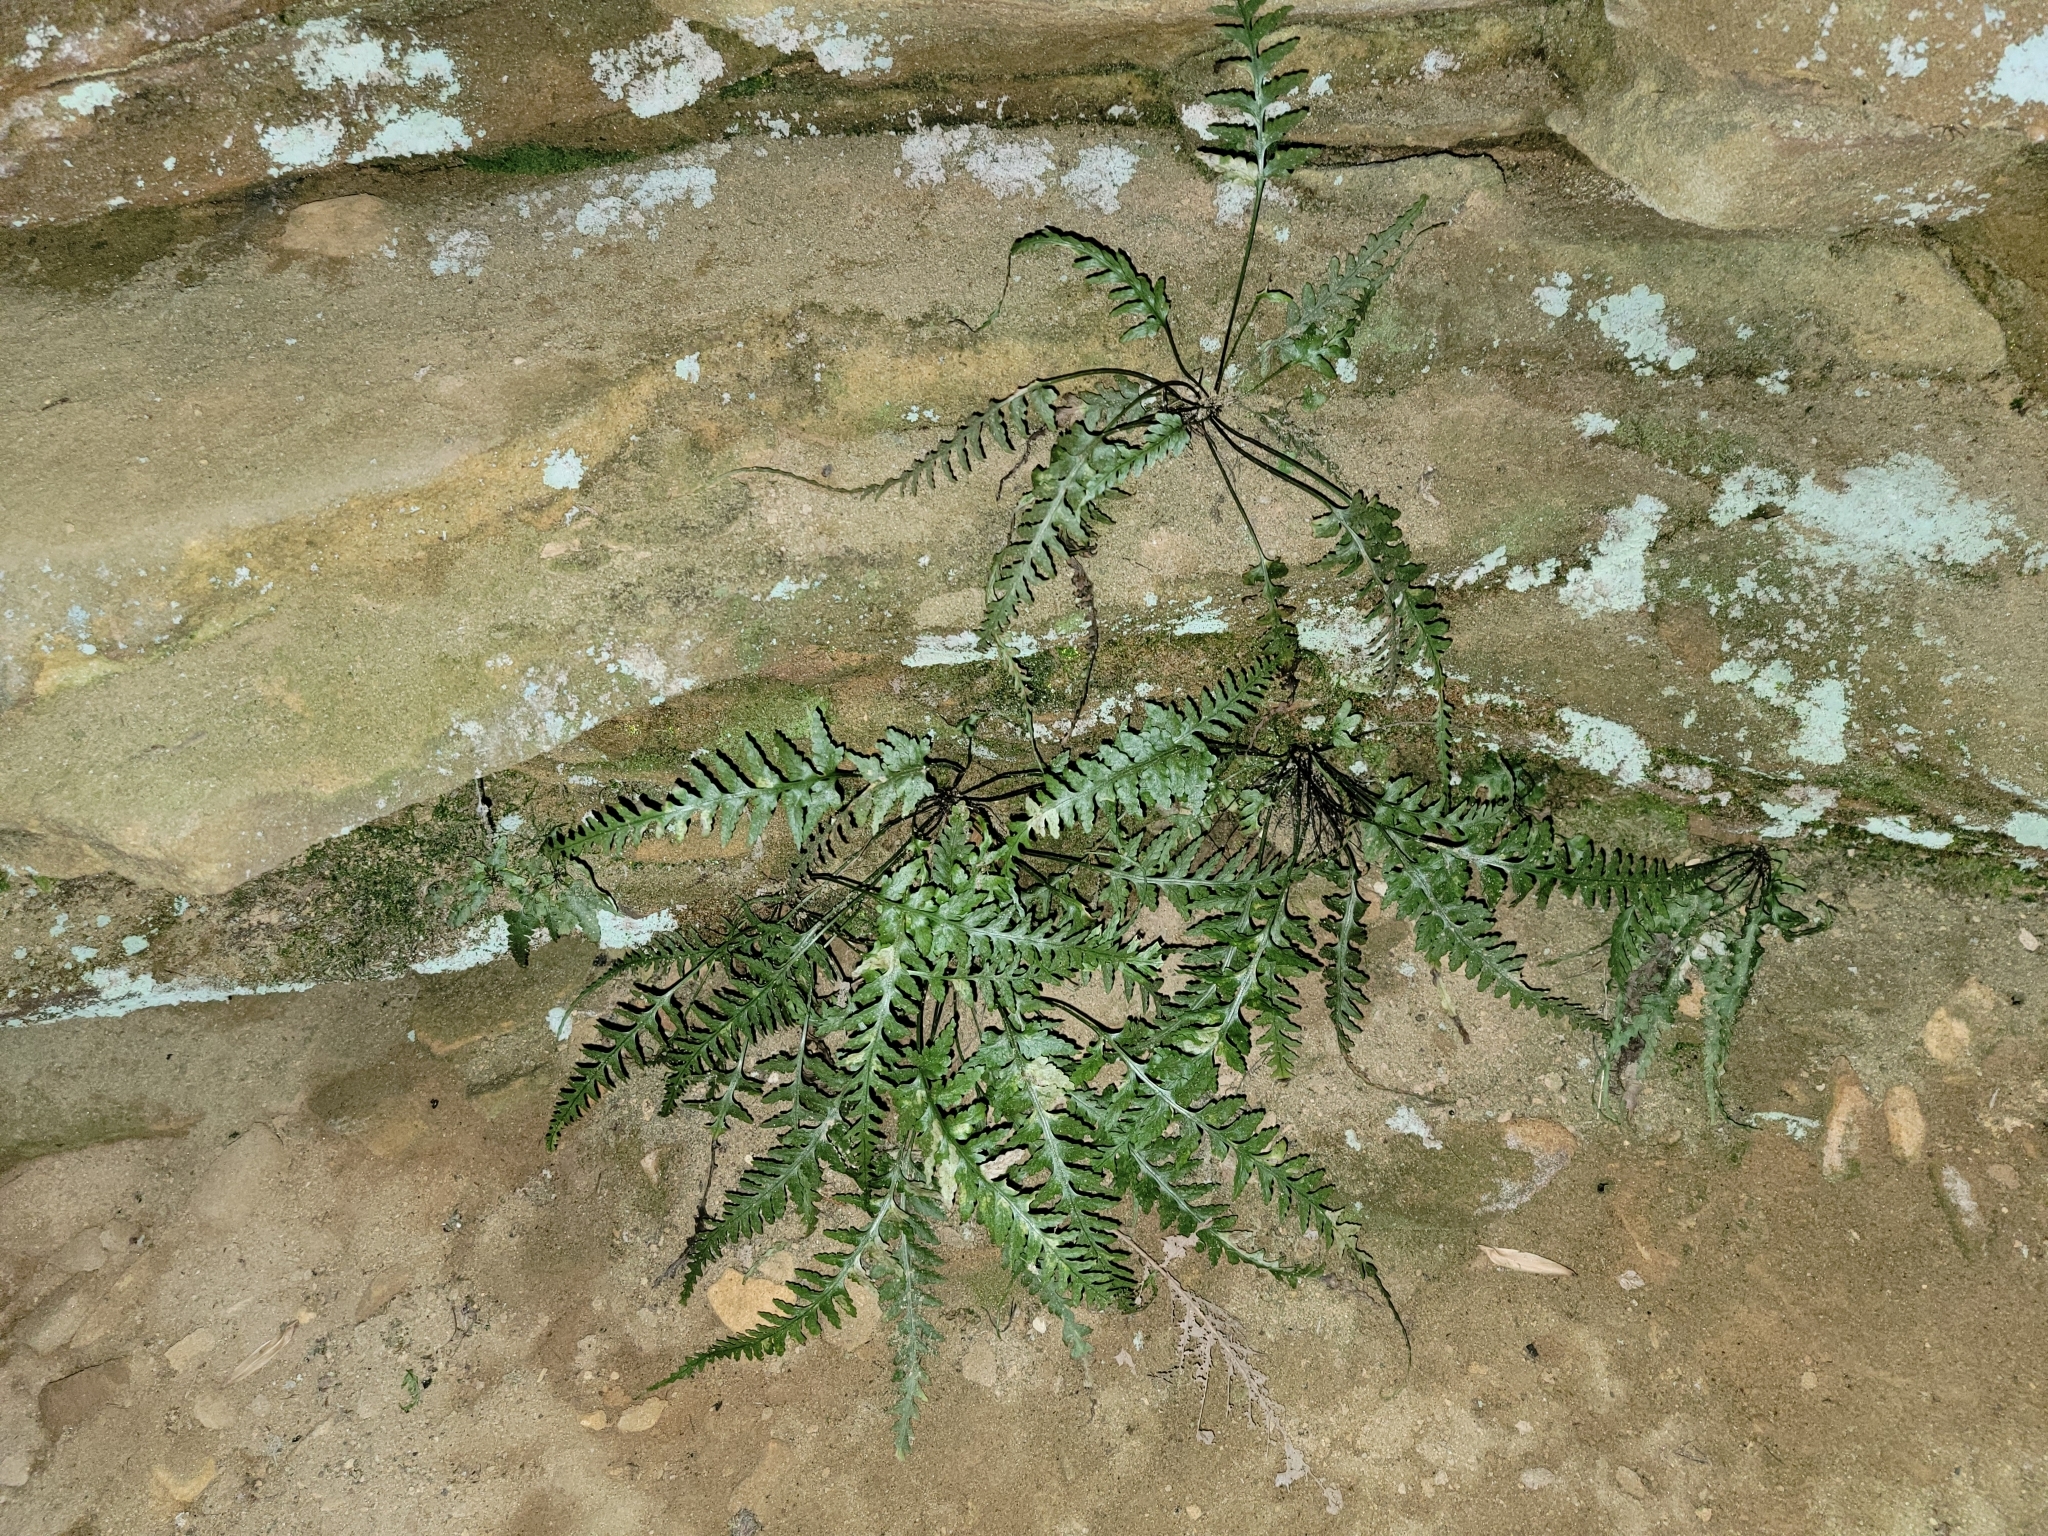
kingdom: Plantae
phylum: Tracheophyta
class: Polypodiopsida
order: Polypodiales
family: Aspleniaceae
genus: Asplenium
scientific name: Asplenium pinnatifidum
